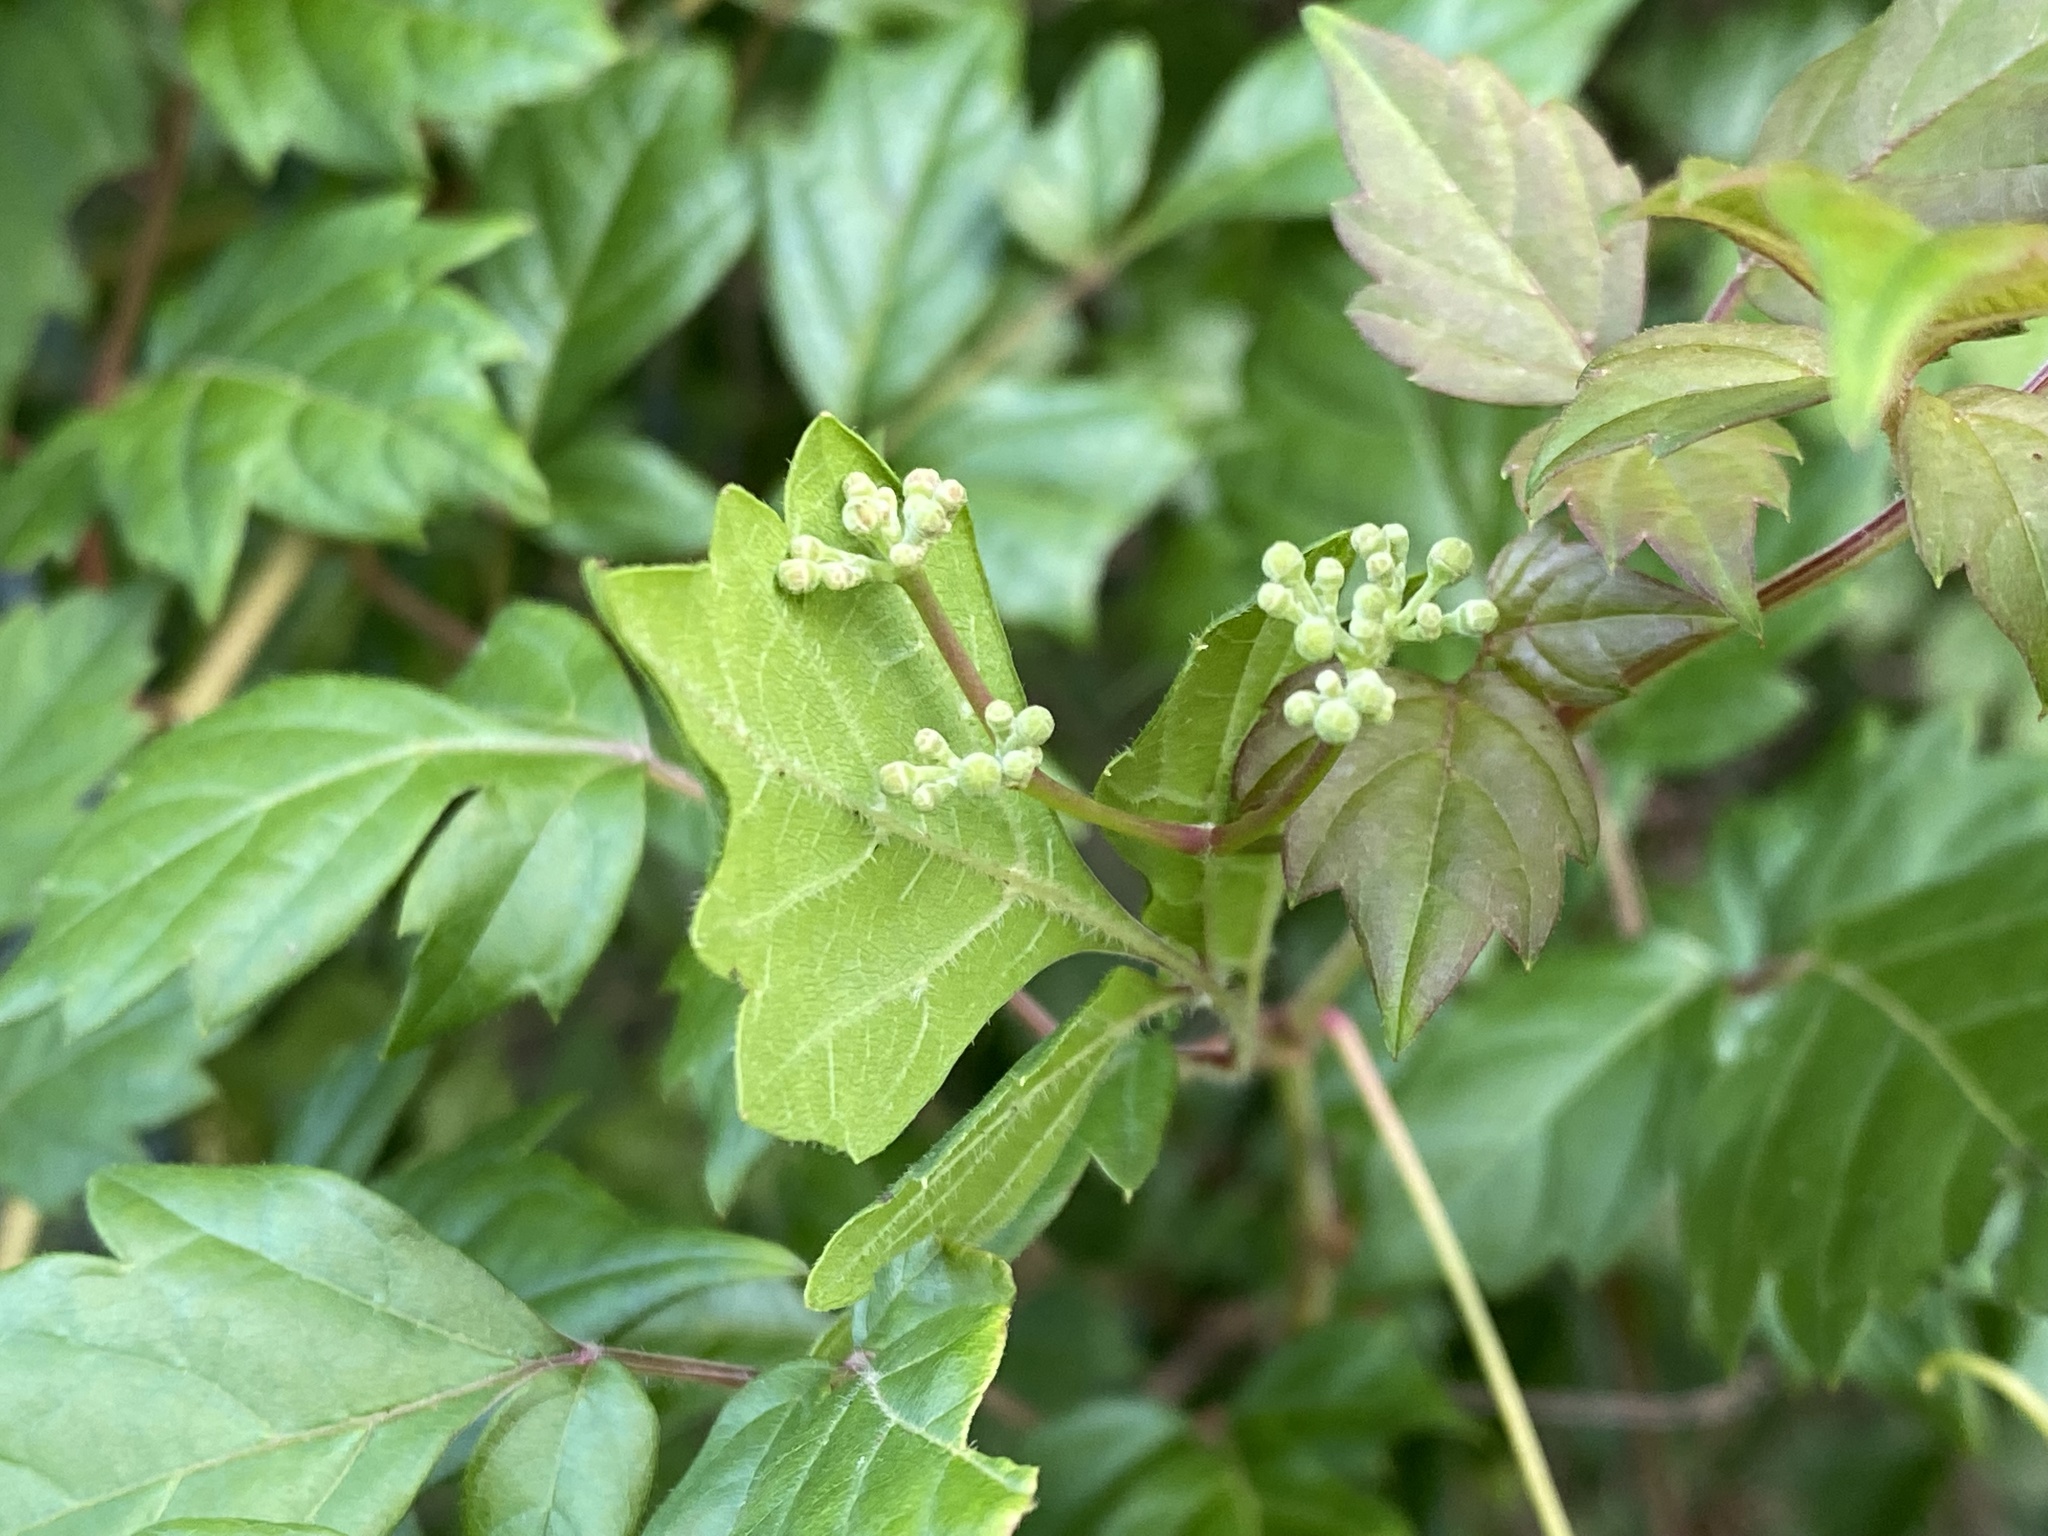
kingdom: Plantae
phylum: Tracheophyta
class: Magnoliopsida
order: Vitales
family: Vitaceae
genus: Nekemias
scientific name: Nekemias arborea
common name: Peppervine
